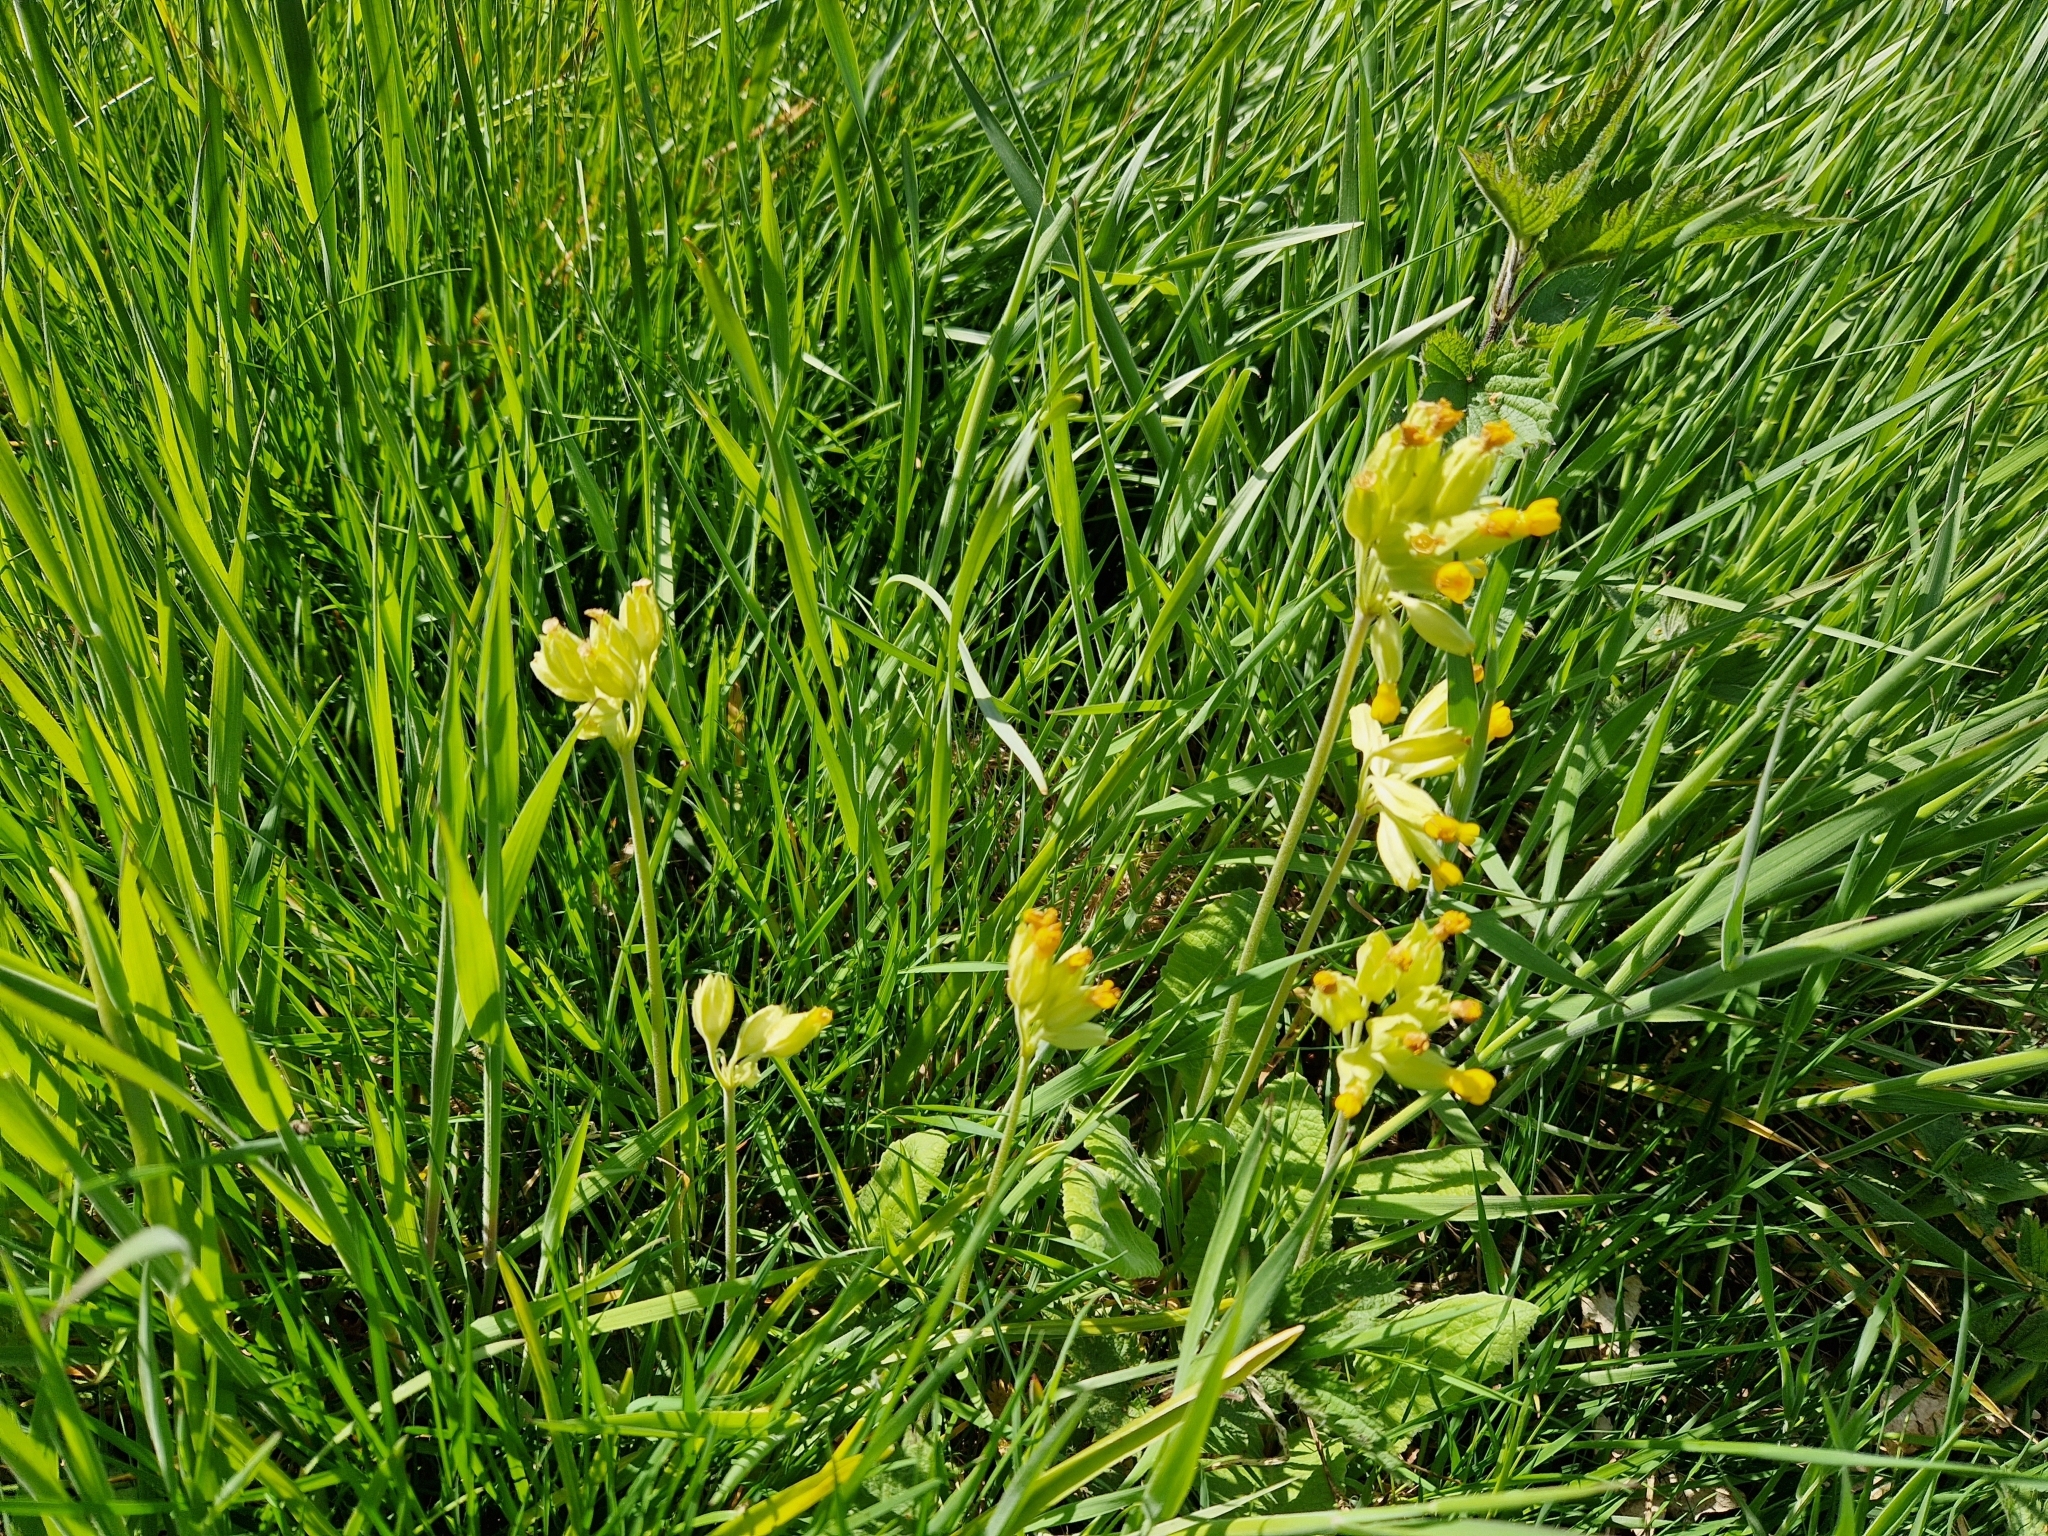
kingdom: Plantae
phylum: Tracheophyta
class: Magnoliopsida
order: Ericales
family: Primulaceae
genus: Primula
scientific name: Primula veris
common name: Cowslip
